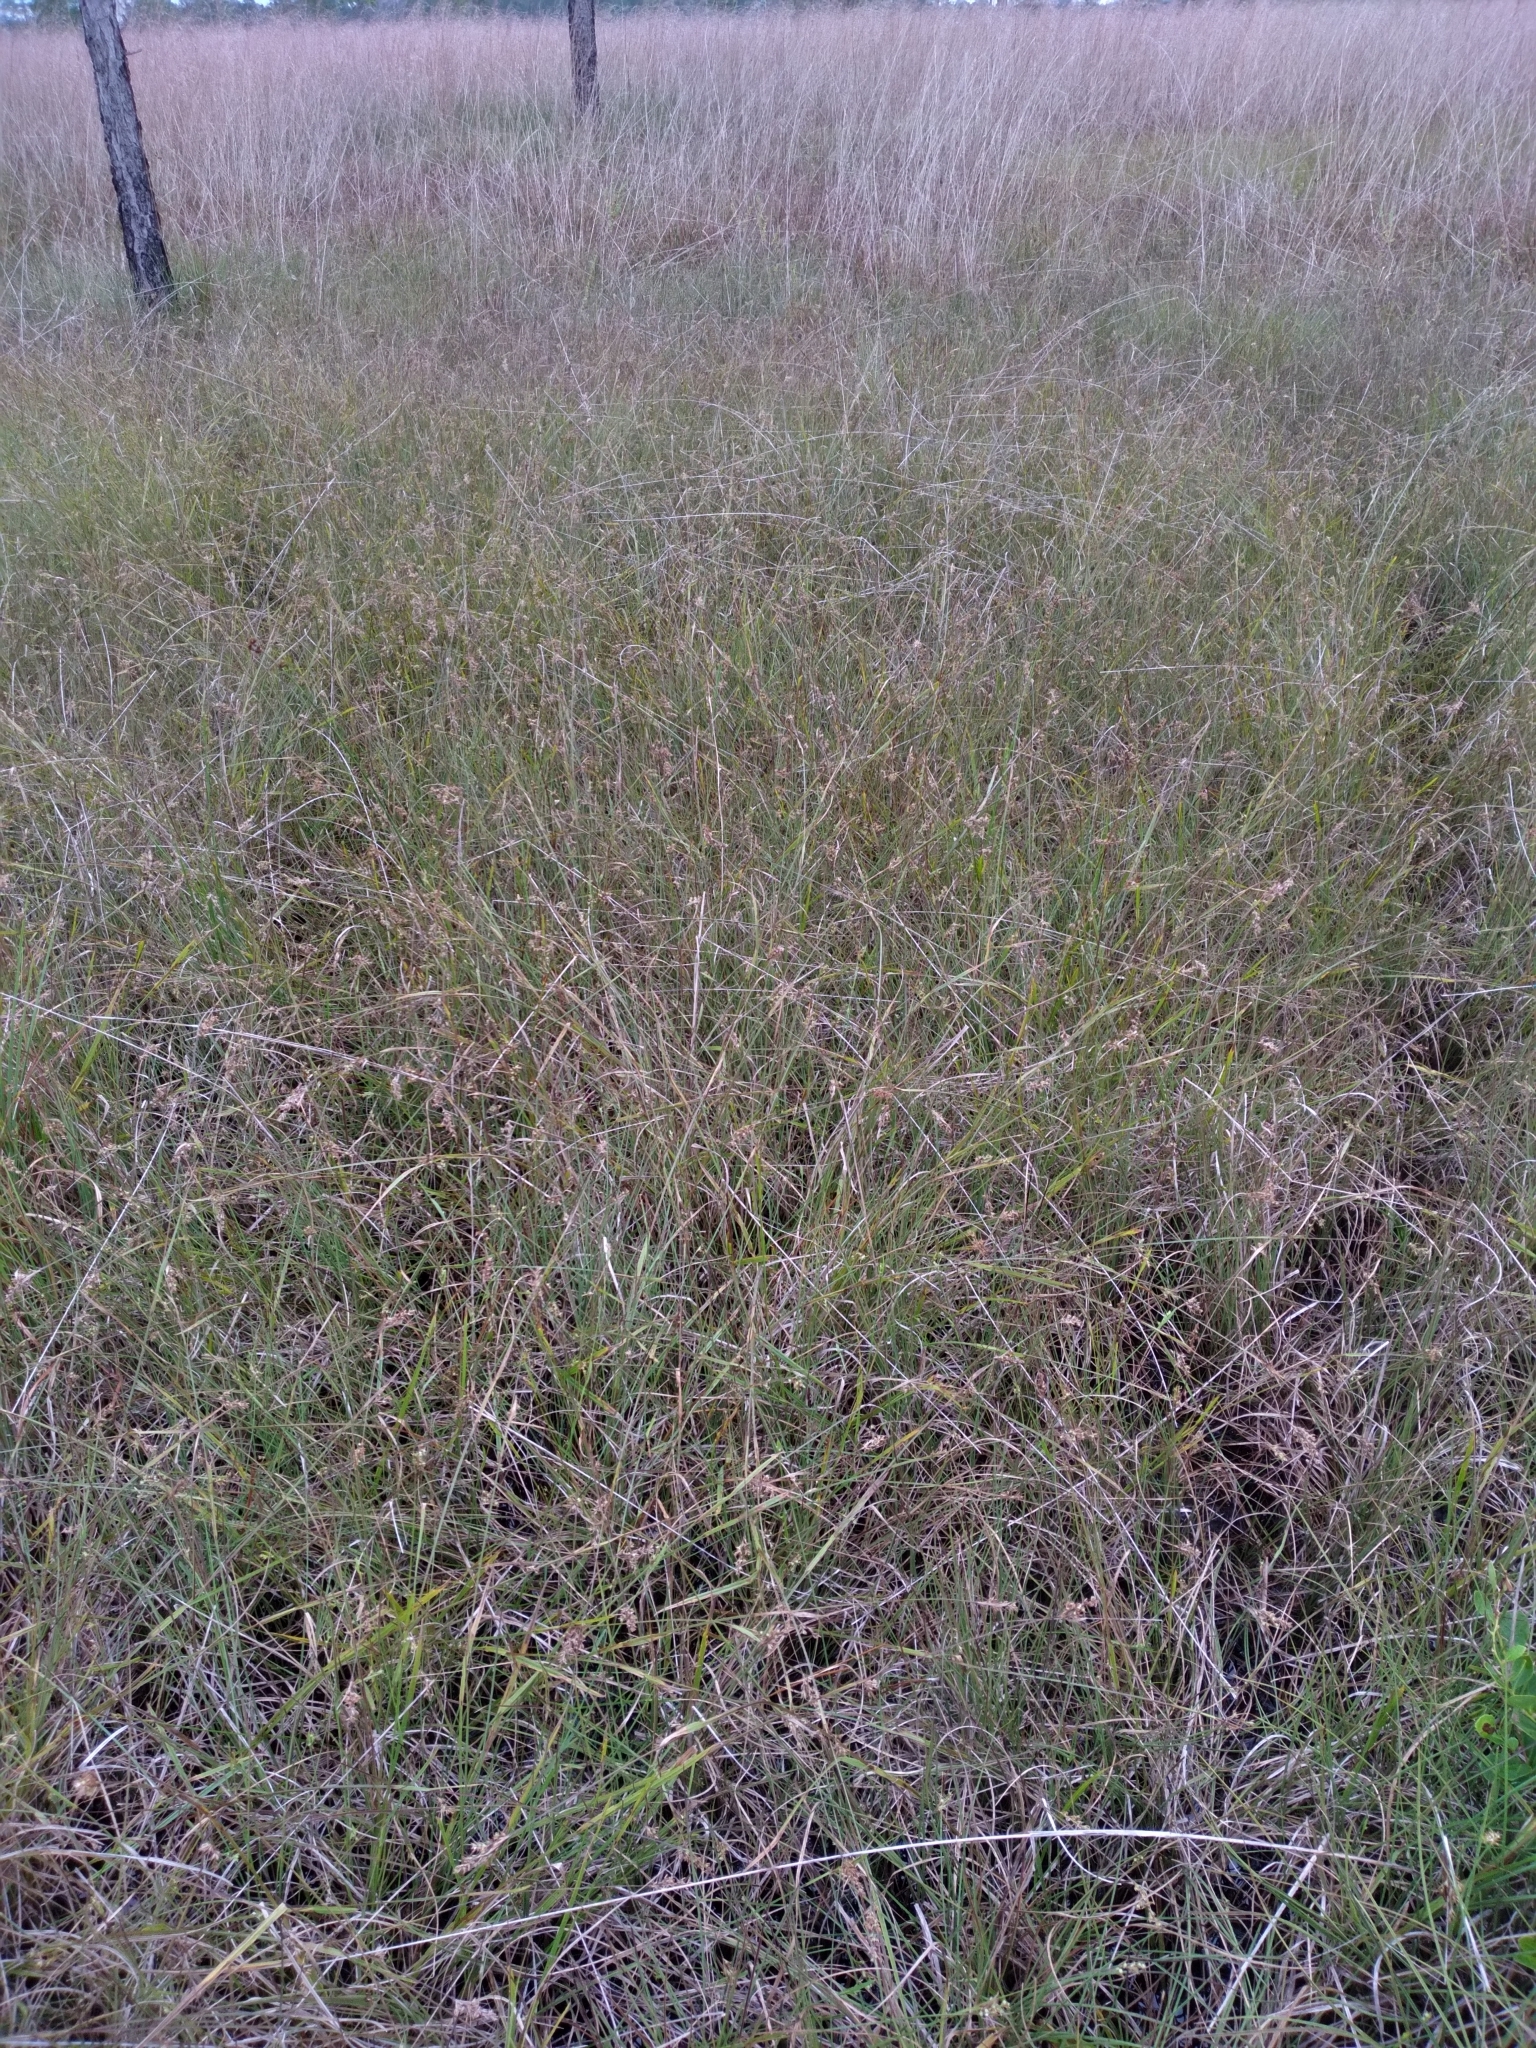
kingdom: Plantae
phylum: Tracheophyta
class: Liliopsida
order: Poales
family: Cyperaceae
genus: Scleria
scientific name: Scleria muehlenbergii
